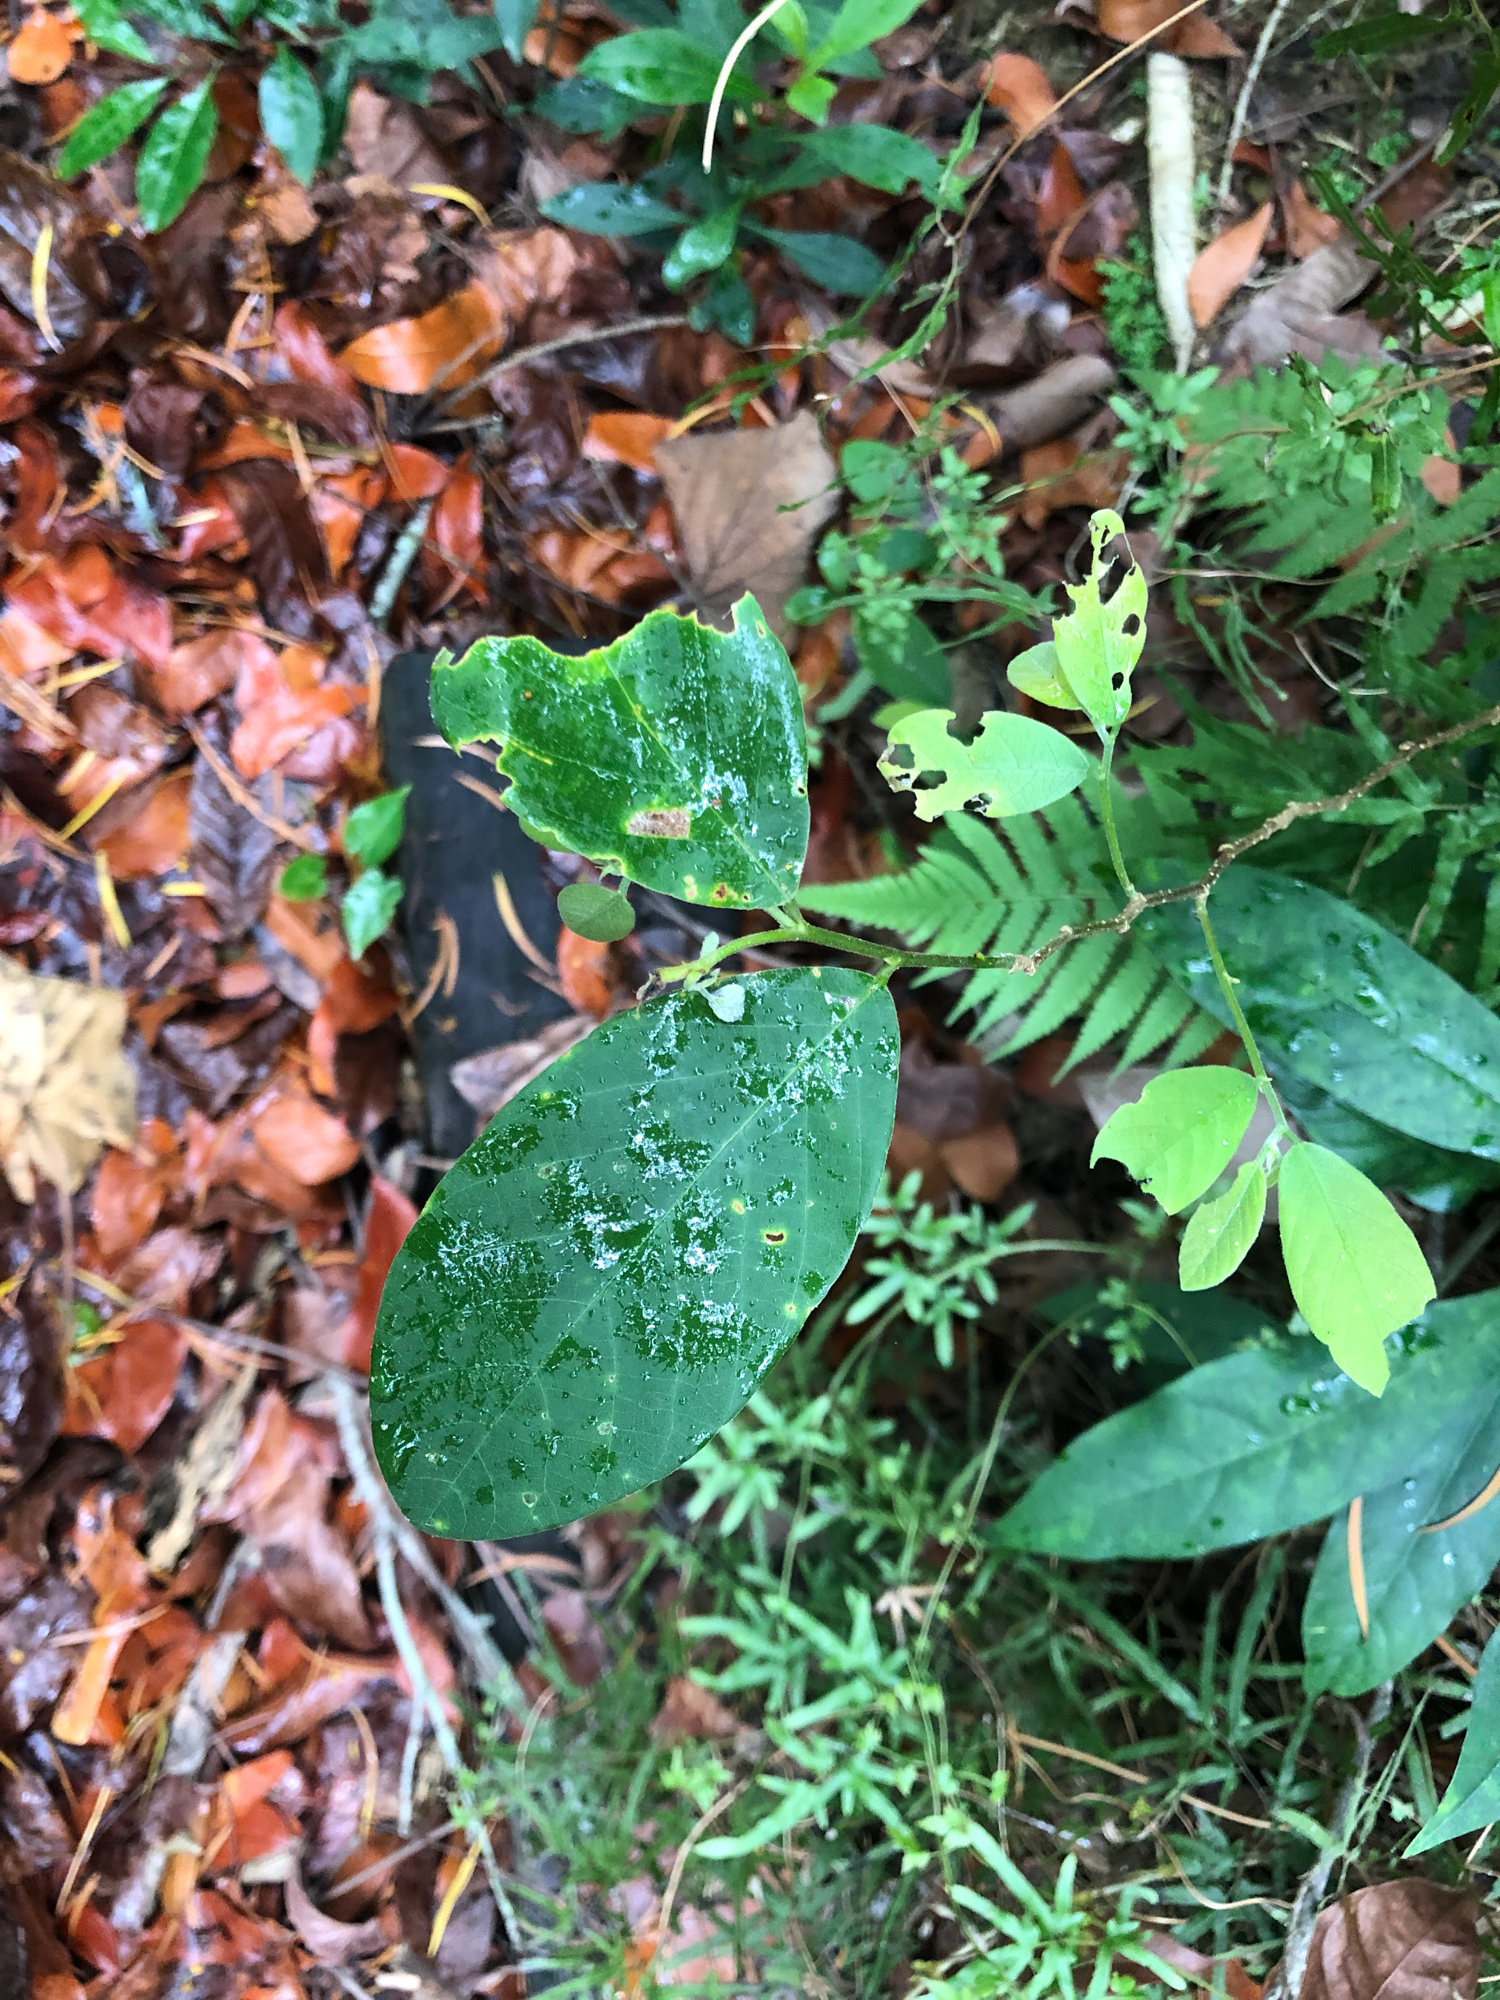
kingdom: Plantae
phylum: Tracheophyta
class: Magnoliopsida
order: Malpighiales
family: Phyllanthaceae
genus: Bridelia
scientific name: Bridelia tomentosa
